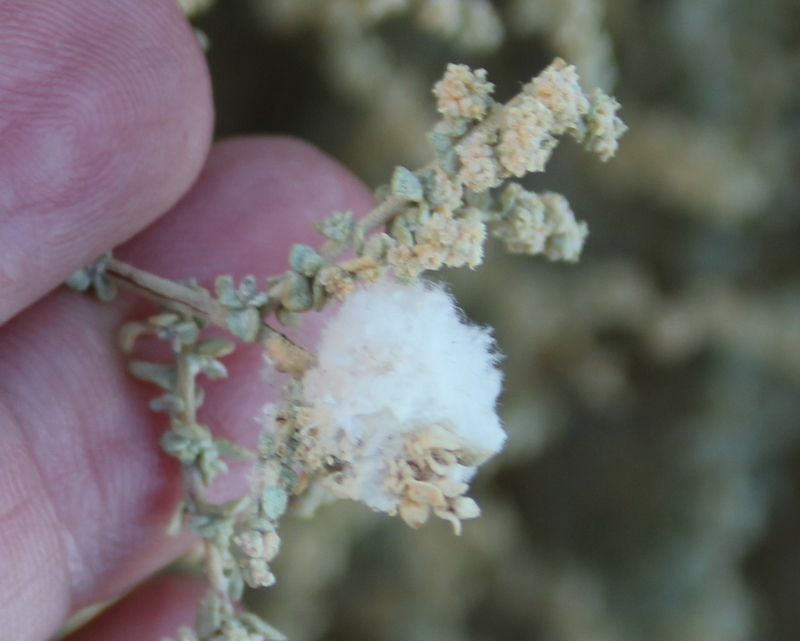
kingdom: Animalia
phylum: Arthropoda
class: Insecta
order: Diptera
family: Cecidomyiidae
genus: Asphondylia
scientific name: Asphondylia floccosa
